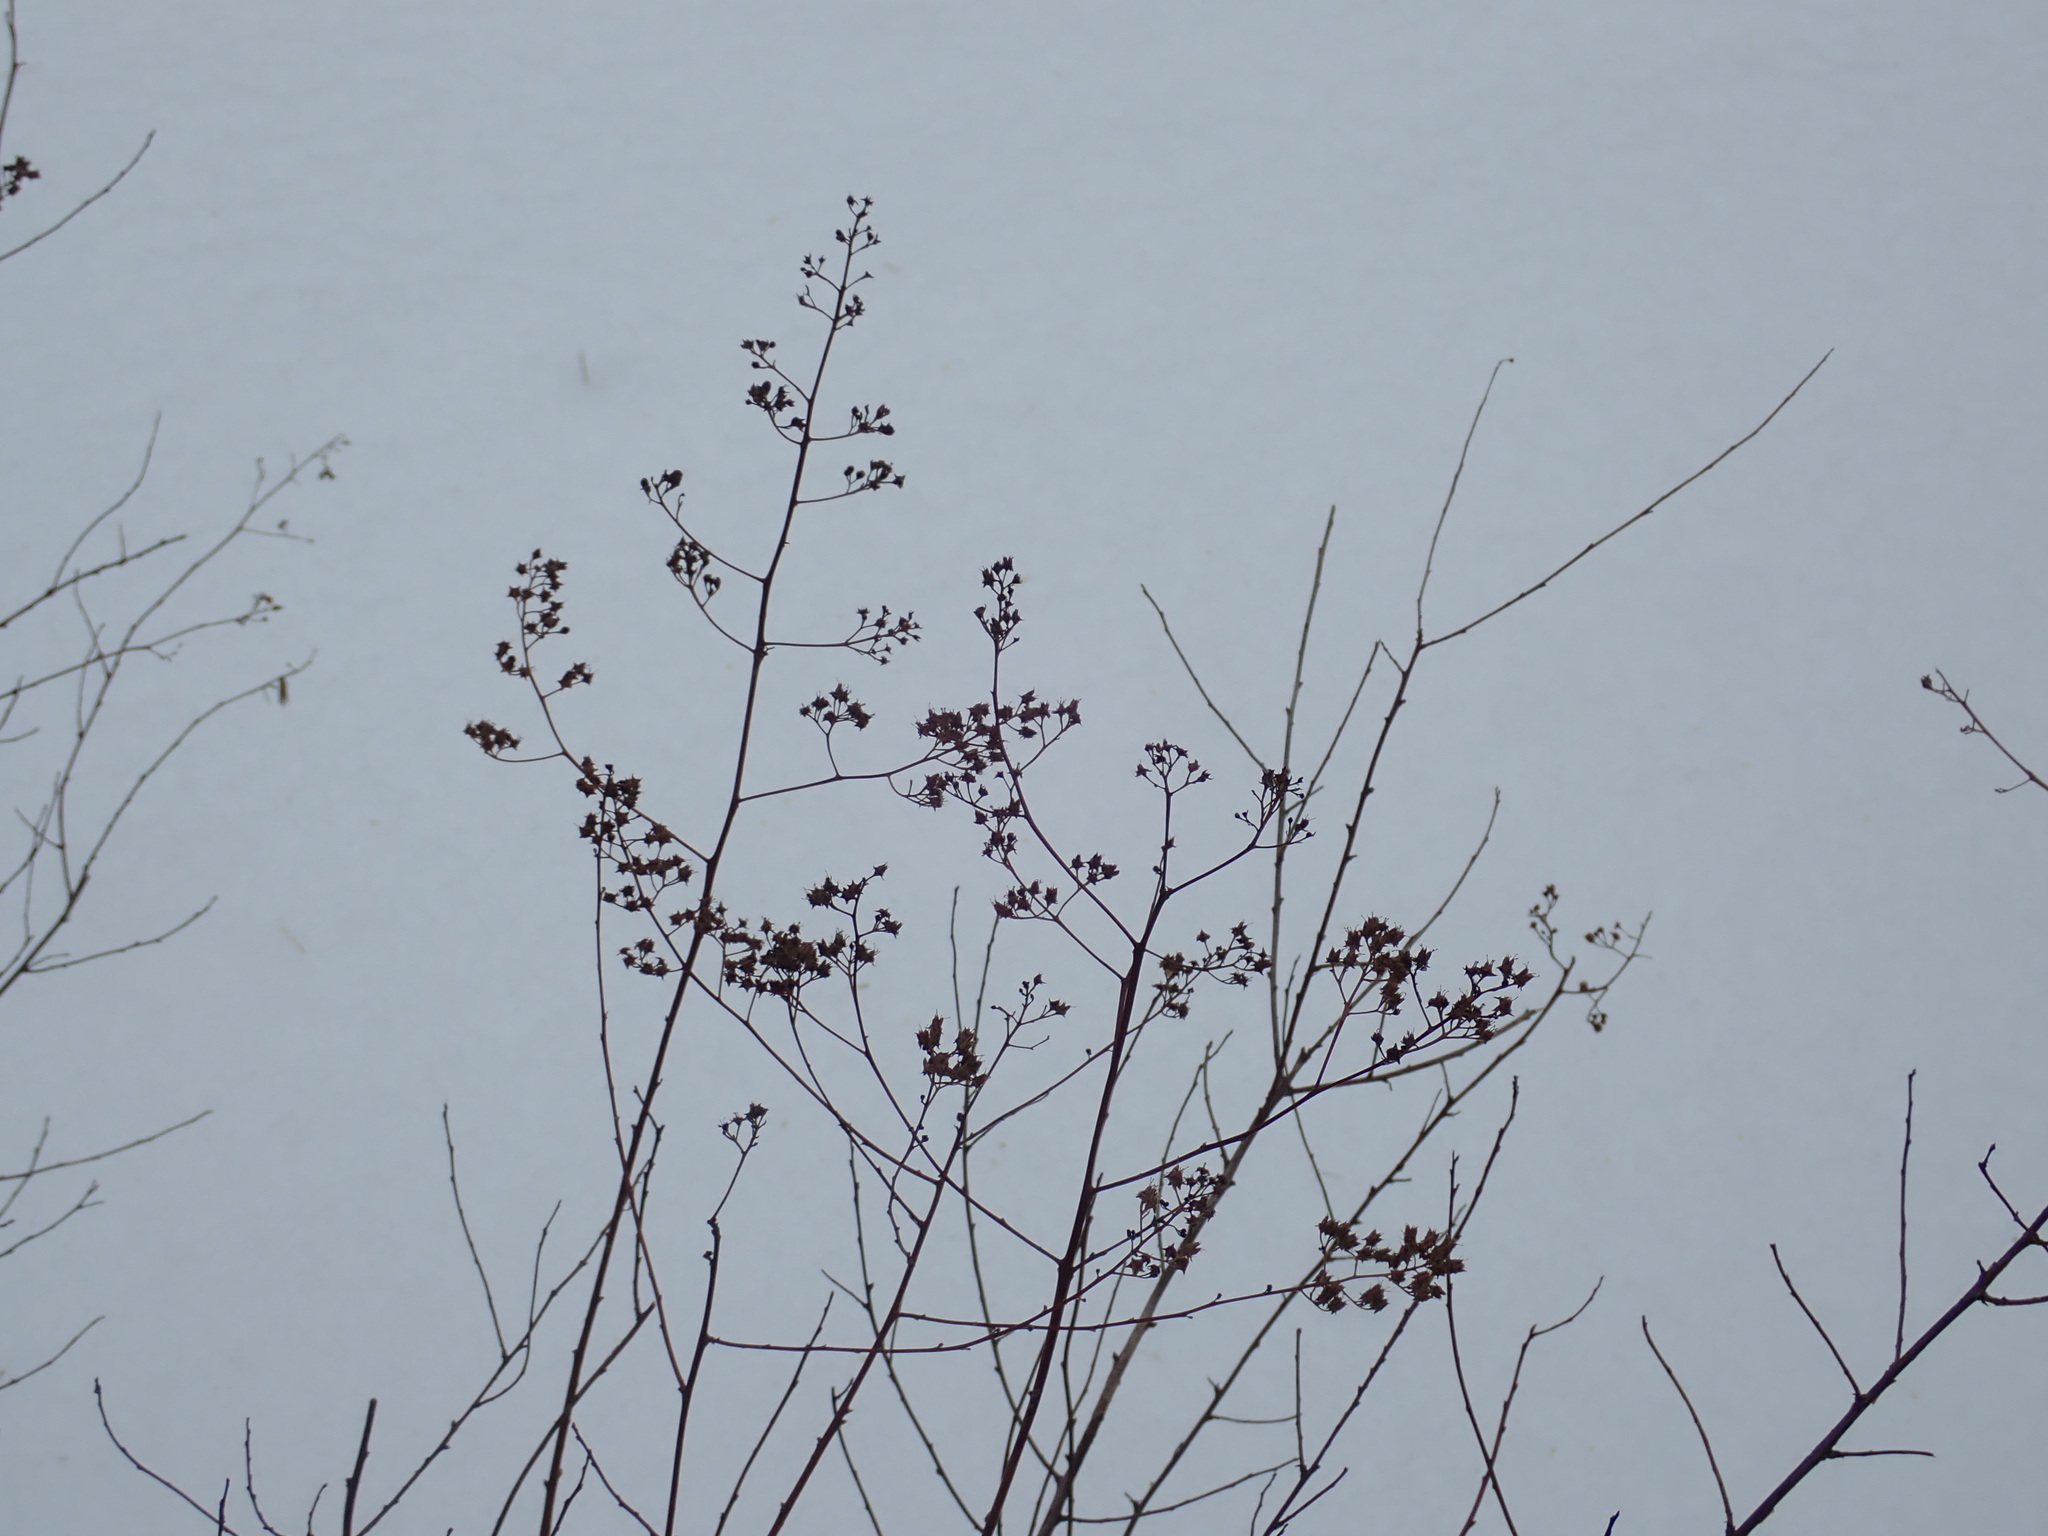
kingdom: Plantae
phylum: Tracheophyta
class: Magnoliopsida
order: Rosales
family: Rosaceae
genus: Spiraea
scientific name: Spiraea alba
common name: Pale bridewort
